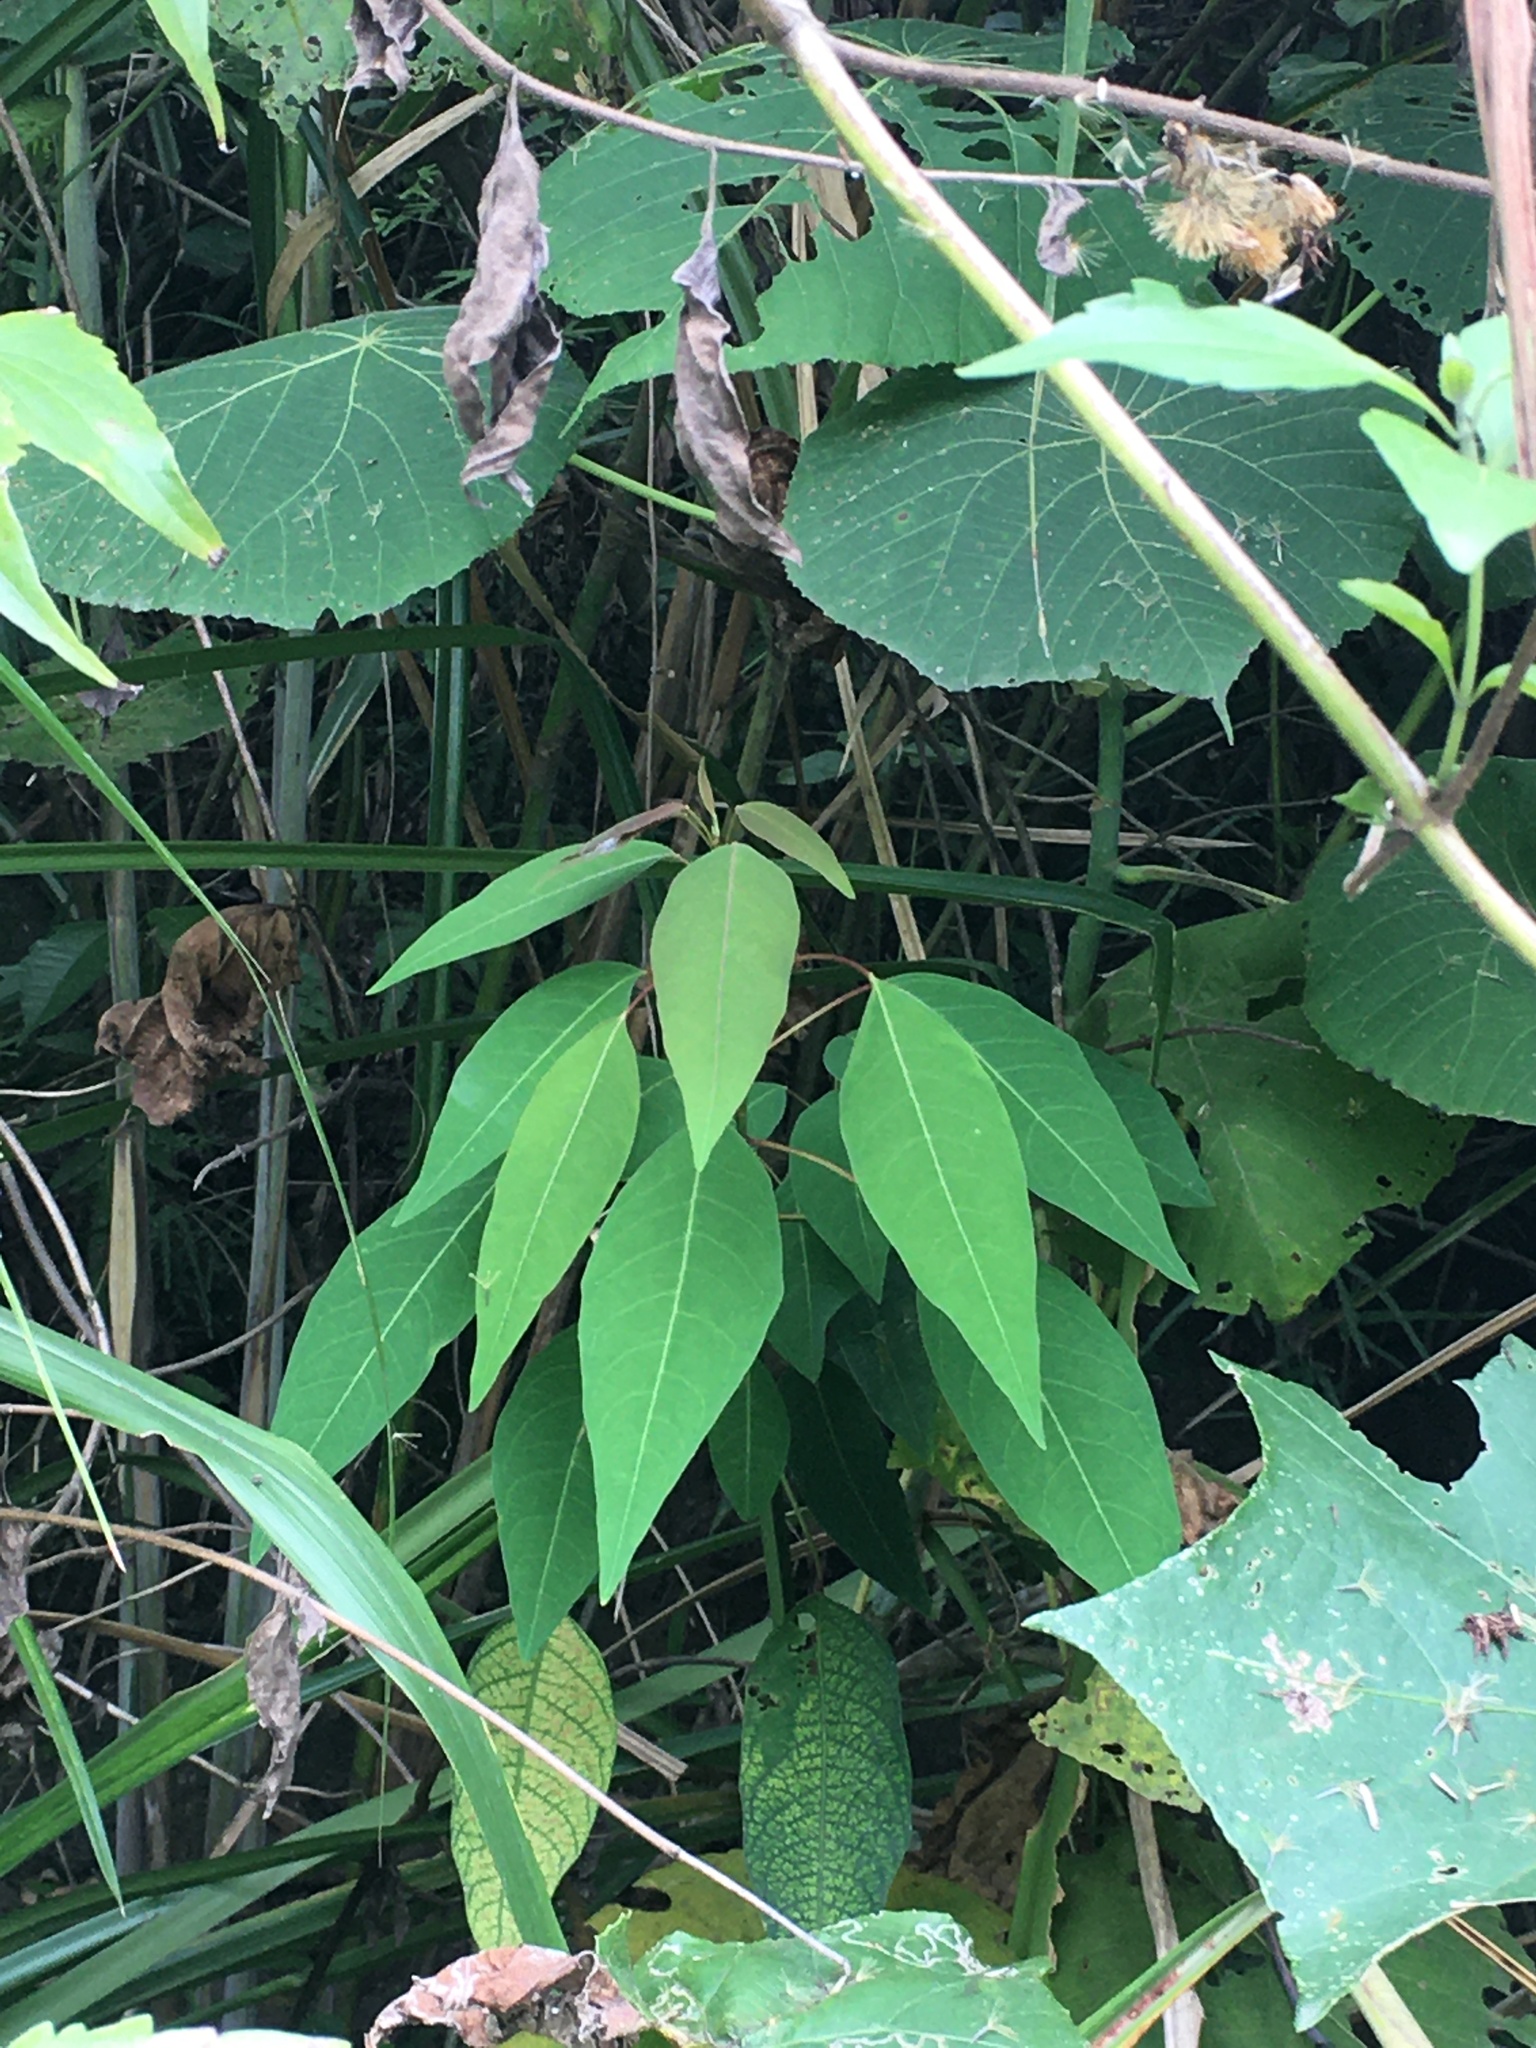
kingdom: Plantae
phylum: Tracheophyta
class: Magnoliopsida
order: Malpighiales
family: Euphorbiaceae
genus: Triadica
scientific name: Triadica cochinchinensis
